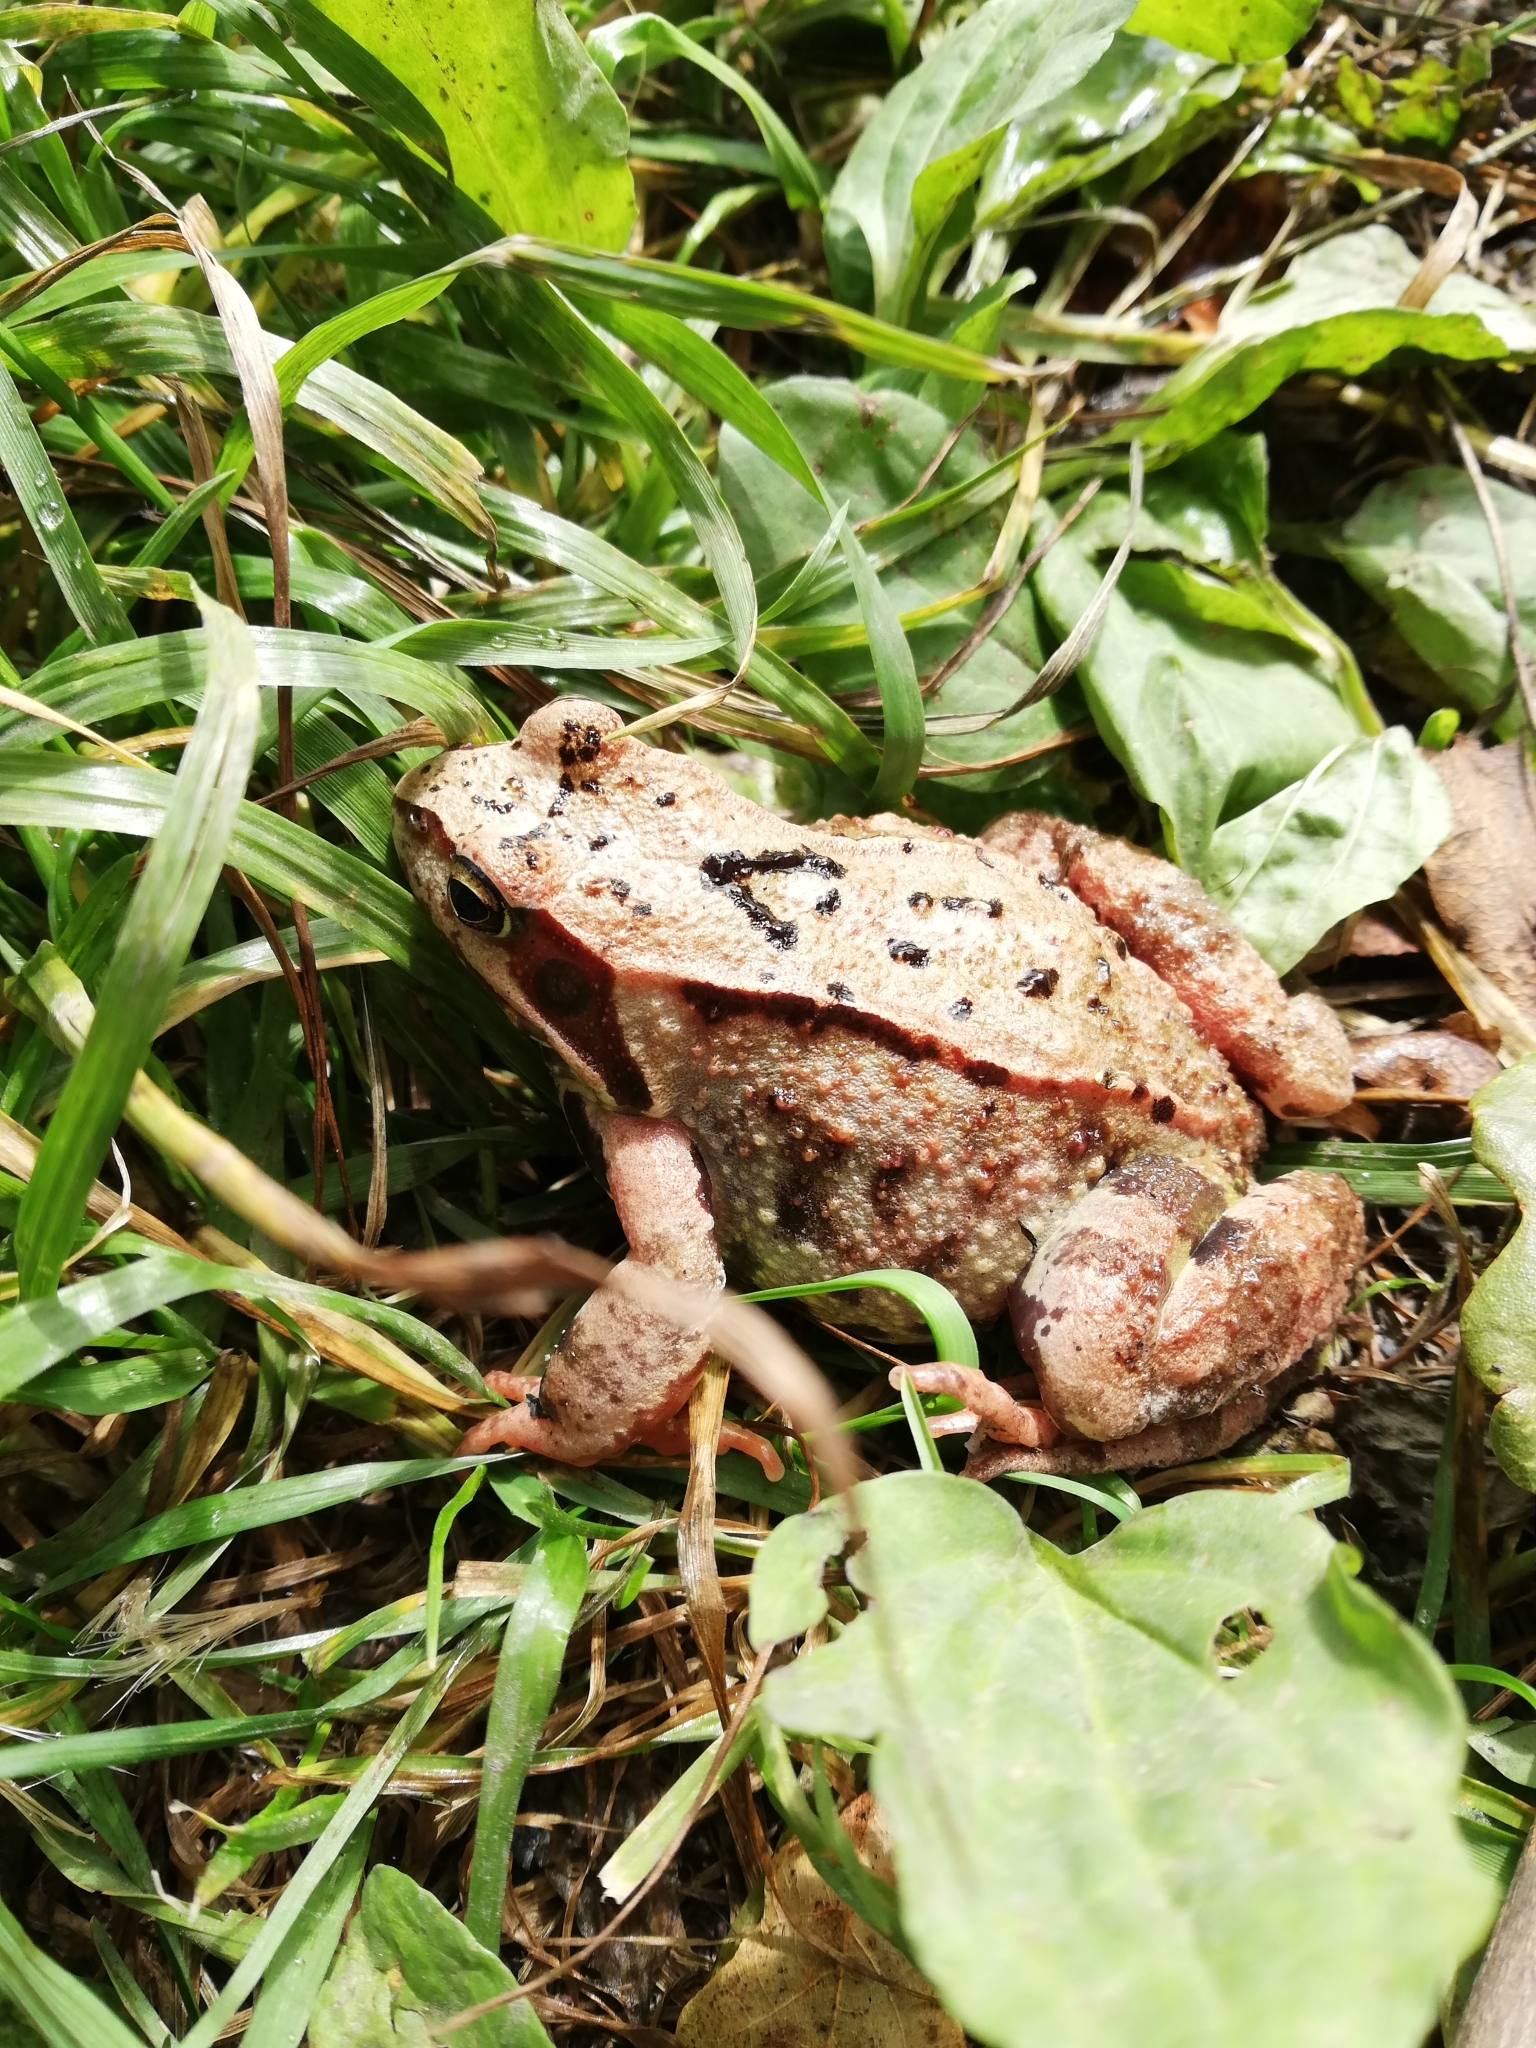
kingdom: Animalia
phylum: Chordata
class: Amphibia
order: Anura
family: Ranidae
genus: Rana
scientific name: Rana temporaria
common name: Common frog
